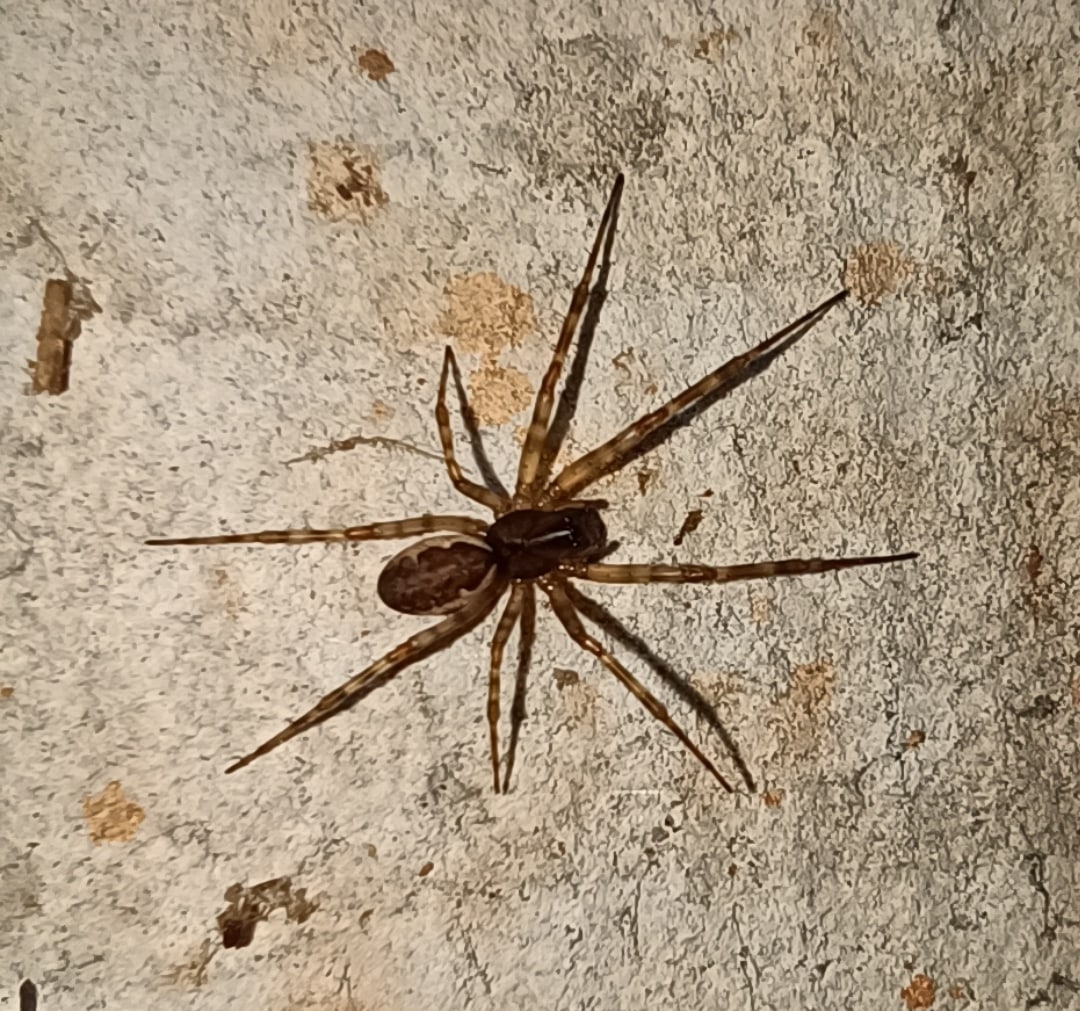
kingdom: Animalia
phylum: Arthropoda
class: Arachnida
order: Araneae
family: Linyphiidae
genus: Neriene
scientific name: Neriene montana
